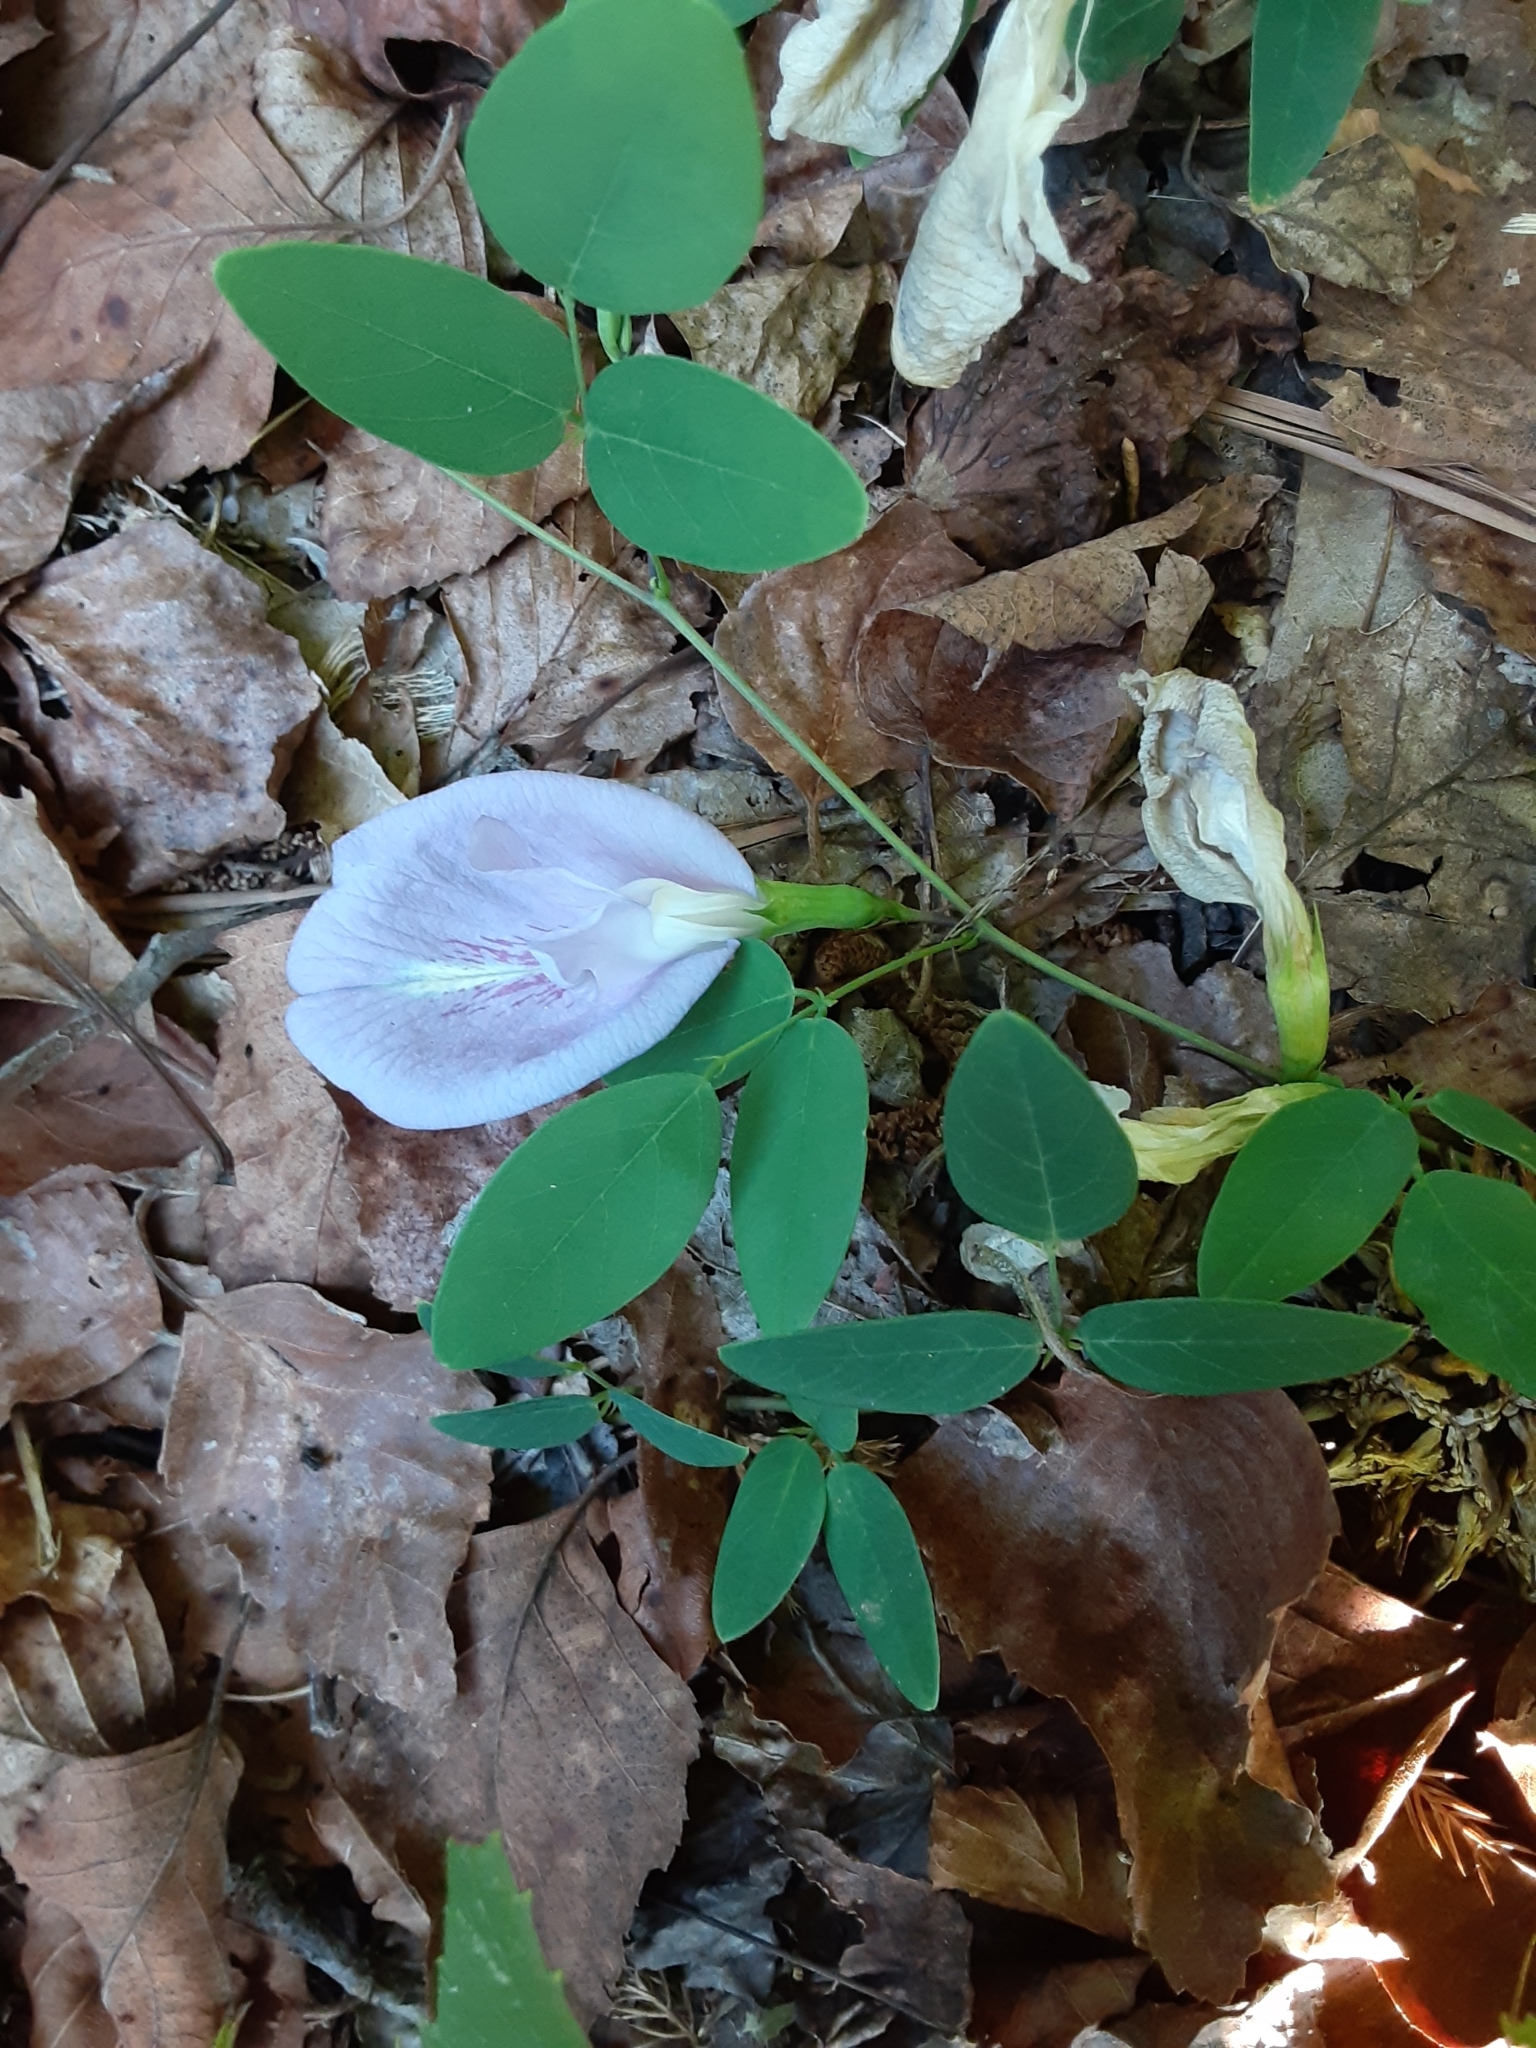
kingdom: Plantae
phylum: Tracheophyta
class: Magnoliopsida
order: Fabales
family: Fabaceae
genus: Clitoria
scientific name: Clitoria mariana
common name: Butterfly-pea
